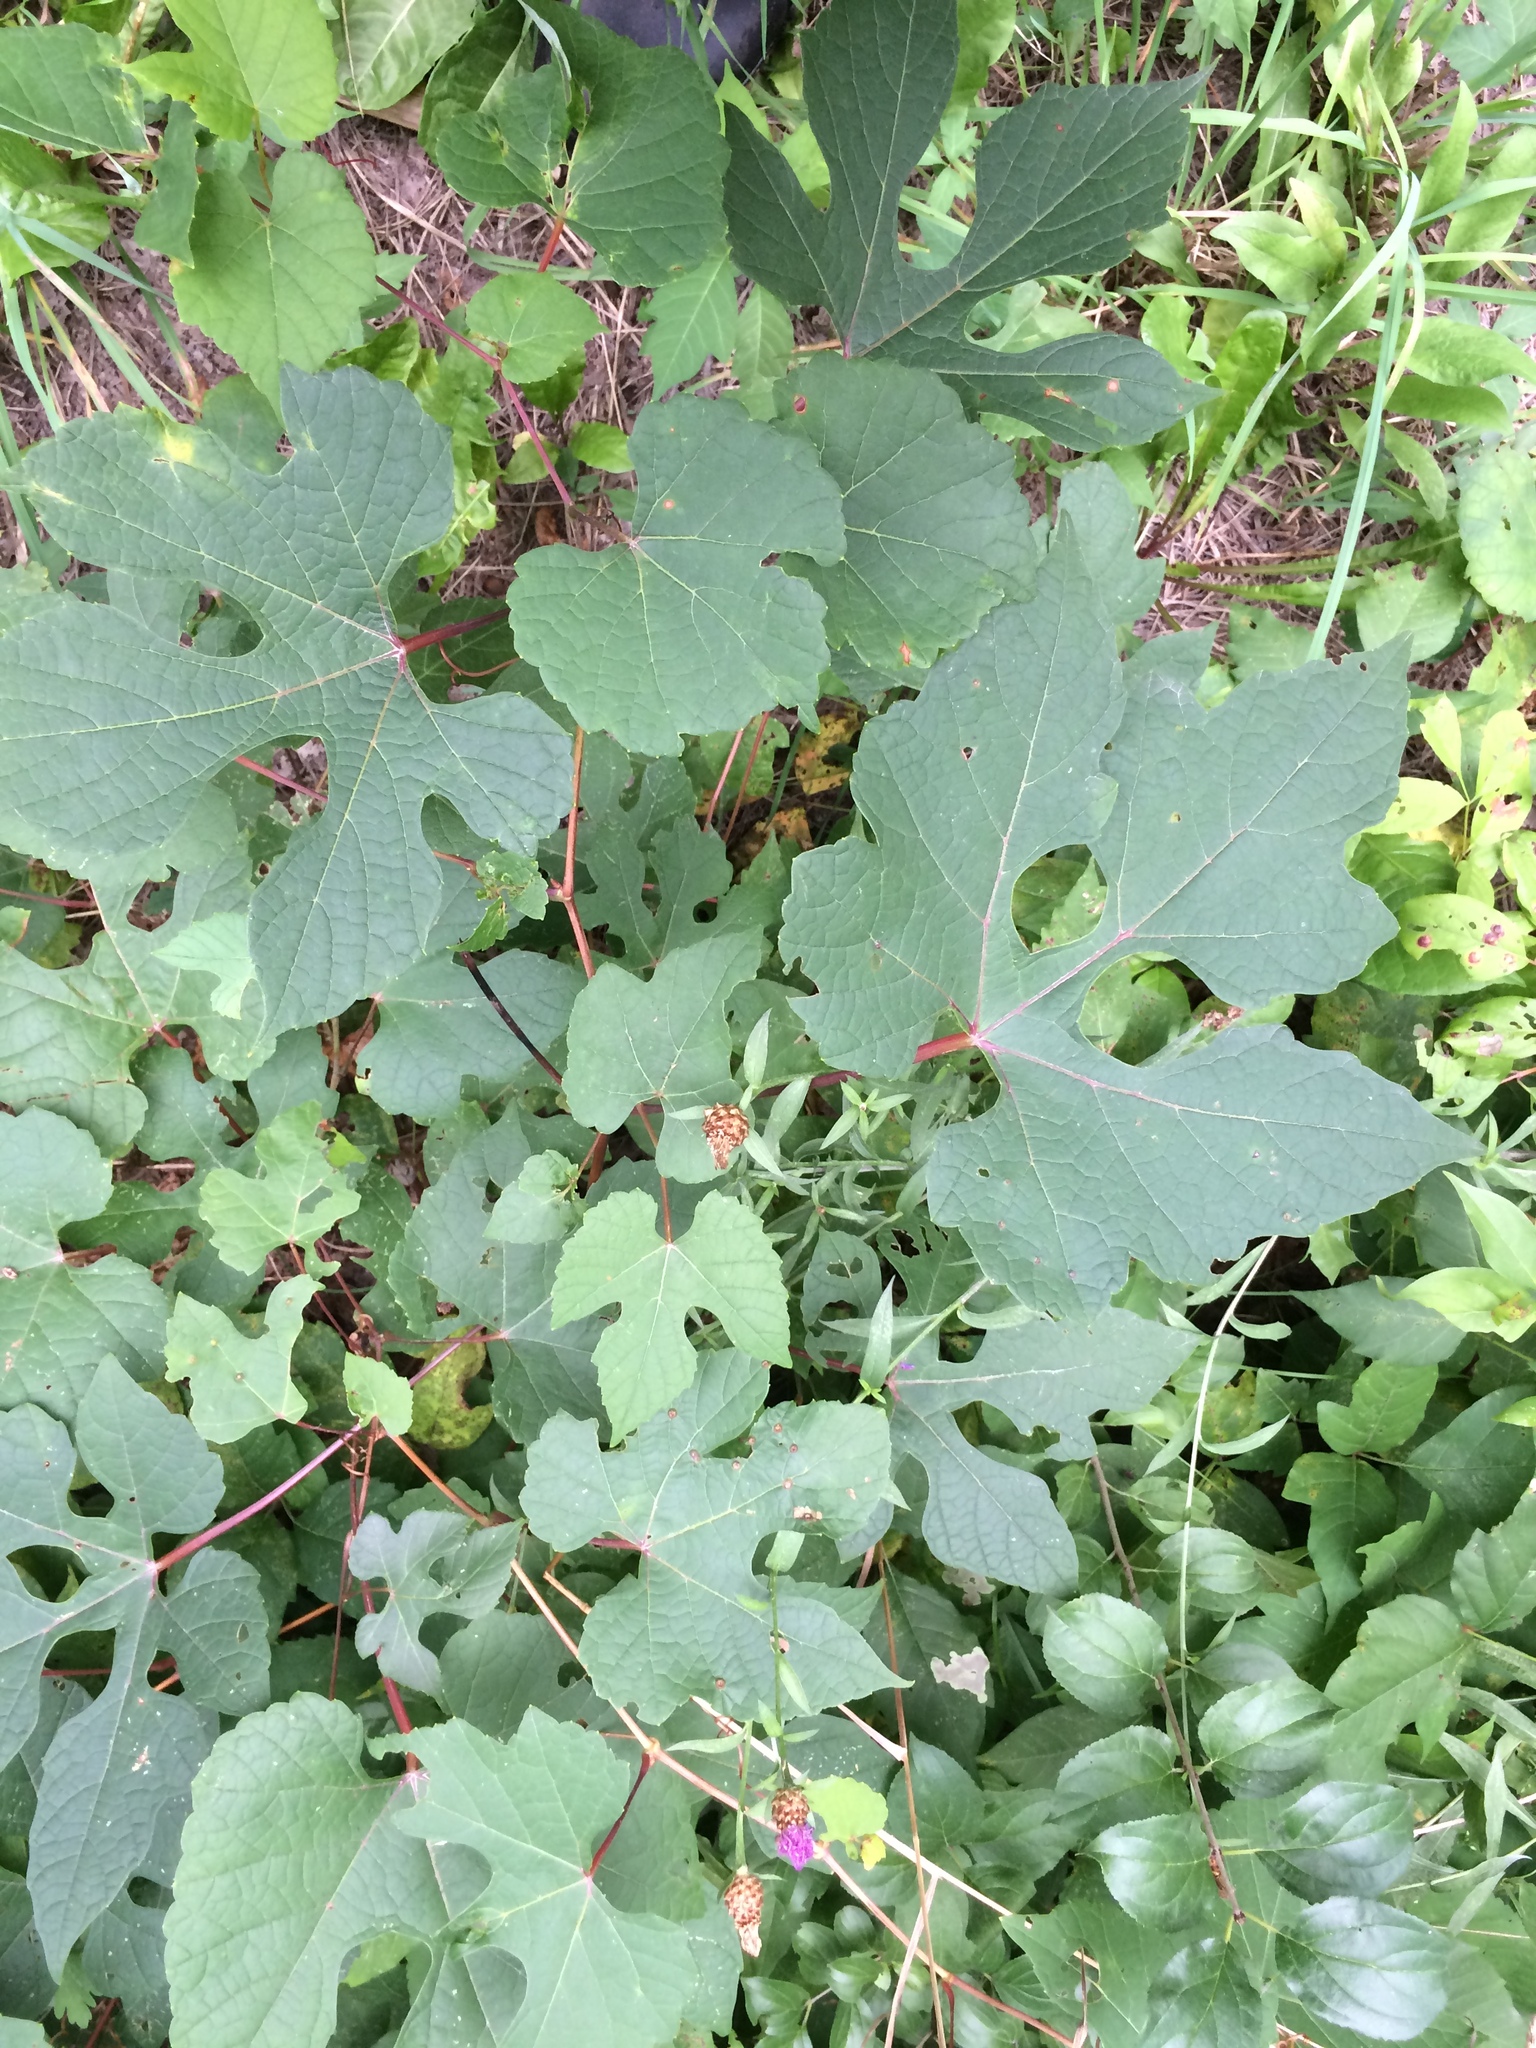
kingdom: Plantae
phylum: Tracheophyta
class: Magnoliopsida
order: Vitales
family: Vitaceae
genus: Vitis
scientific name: Vitis aestivalis
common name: Pigeon grape
